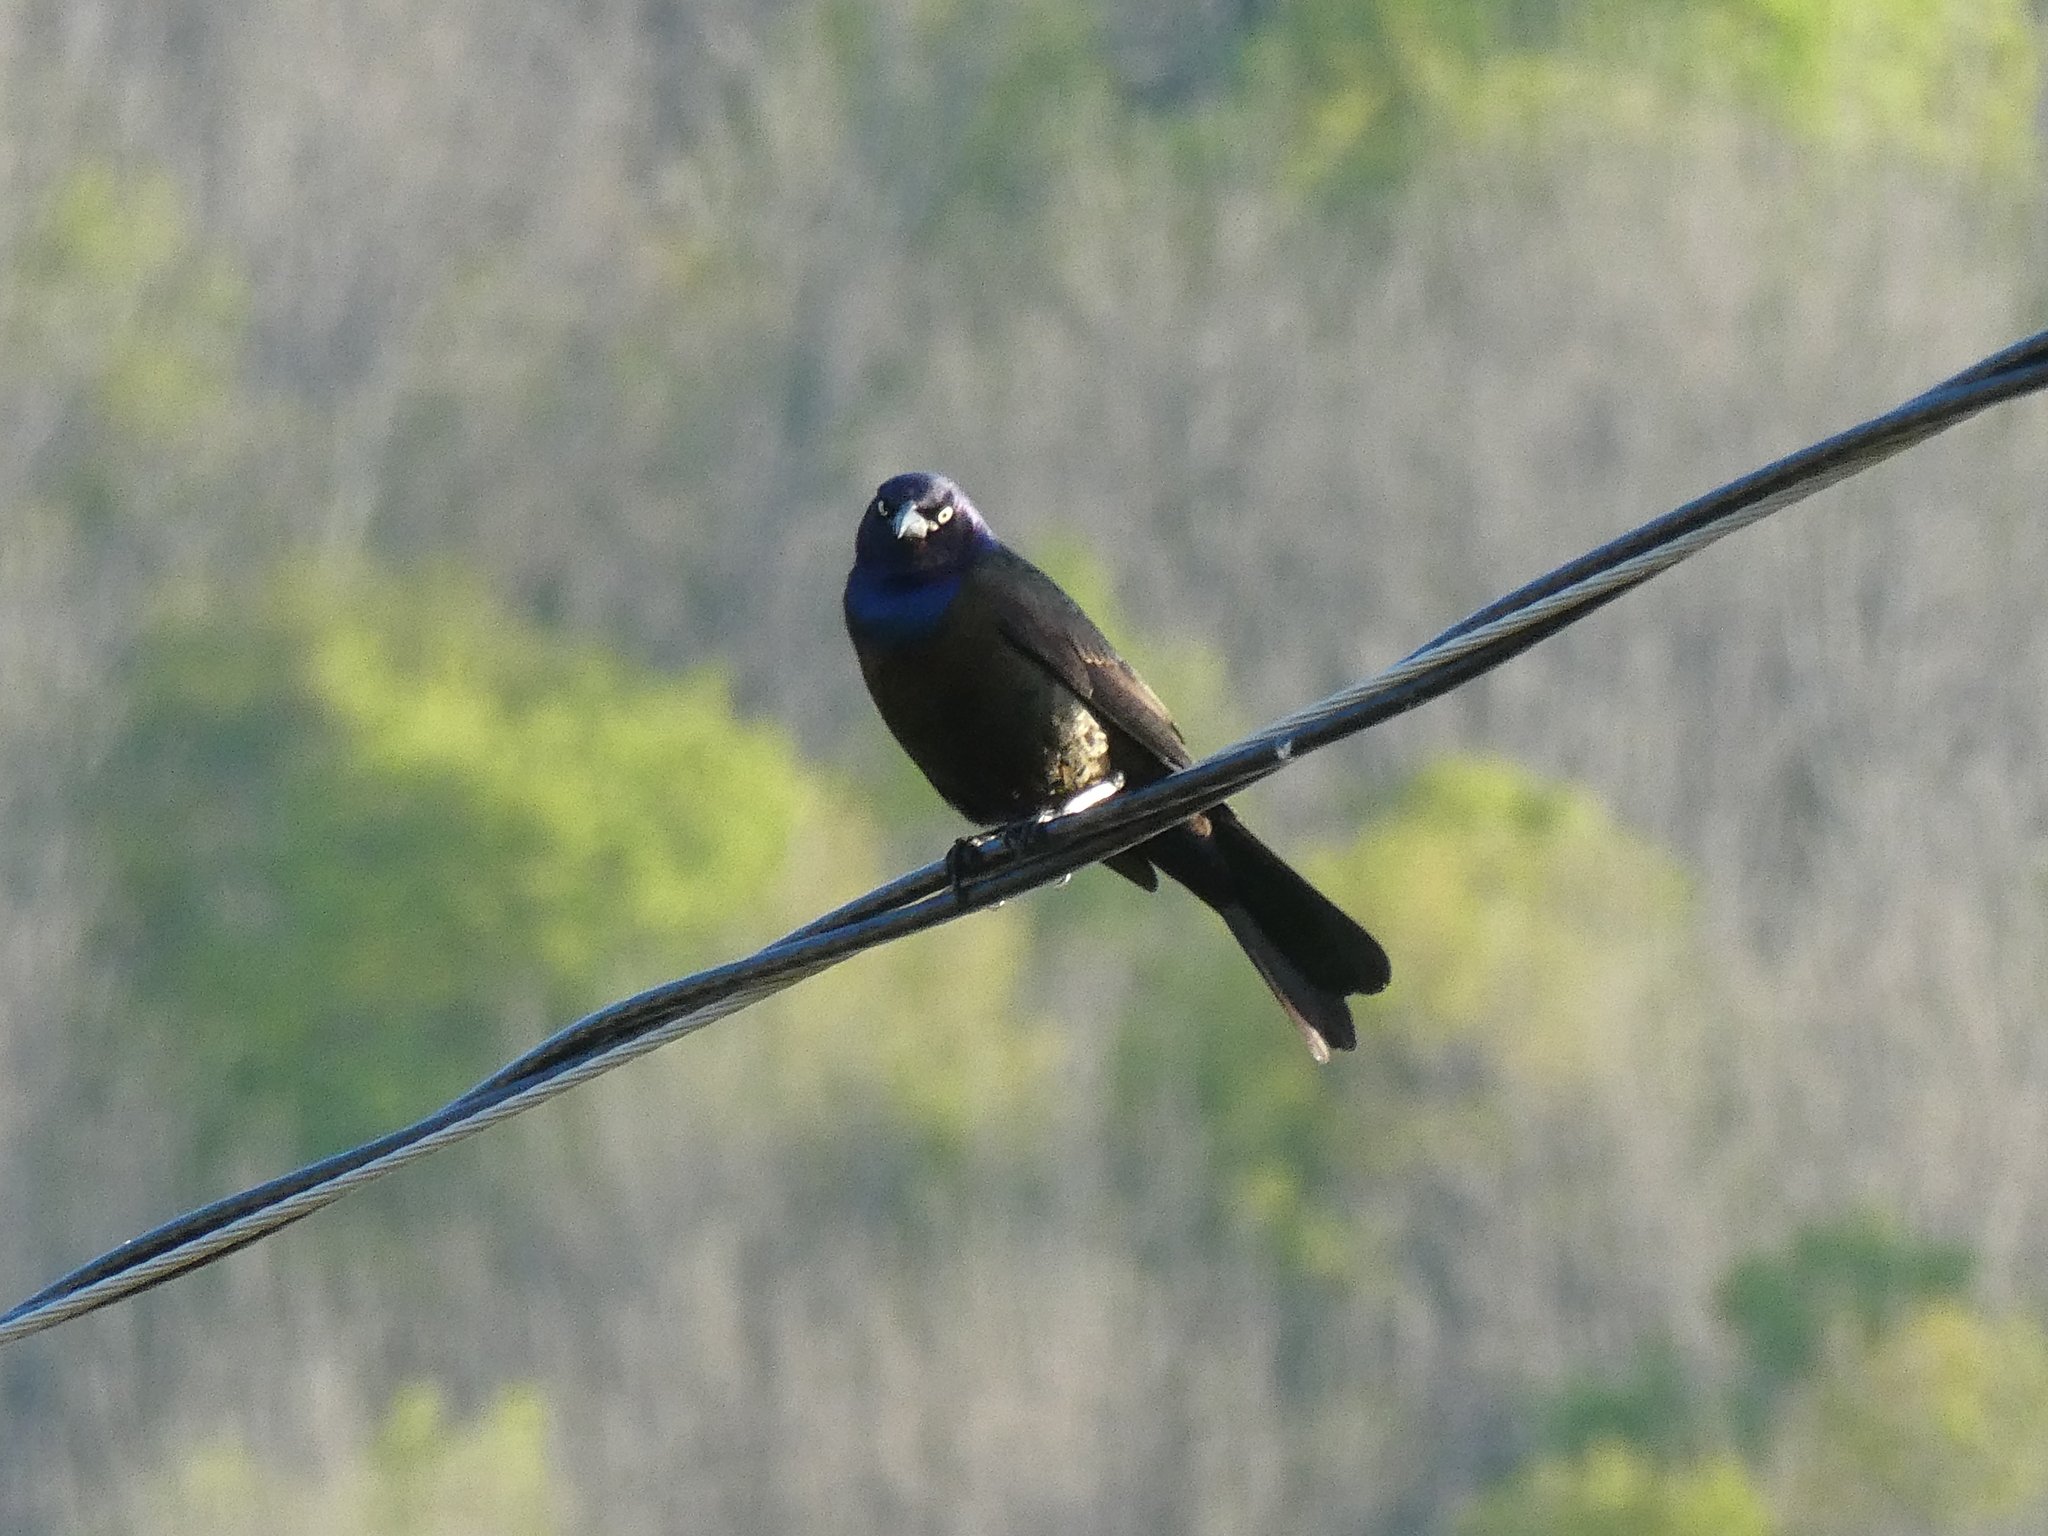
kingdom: Animalia
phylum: Chordata
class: Aves
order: Passeriformes
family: Icteridae
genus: Quiscalus
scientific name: Quiscalus quiscula
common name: Common grackle
